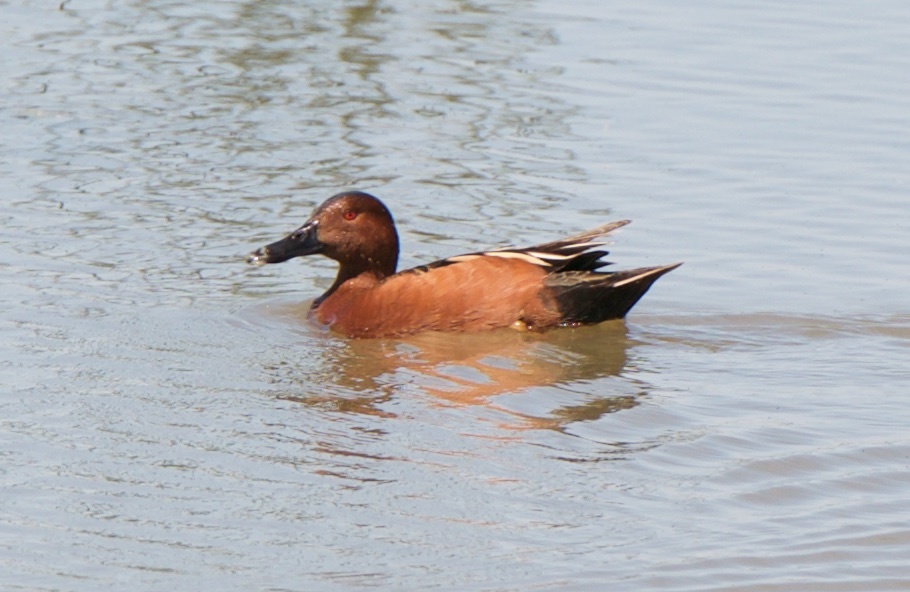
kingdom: Animalia
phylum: Chordata
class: Aves
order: Anseriformes
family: Anatidae
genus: Spatula
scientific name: Spatula cyanoptera
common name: Cinnamon teal
